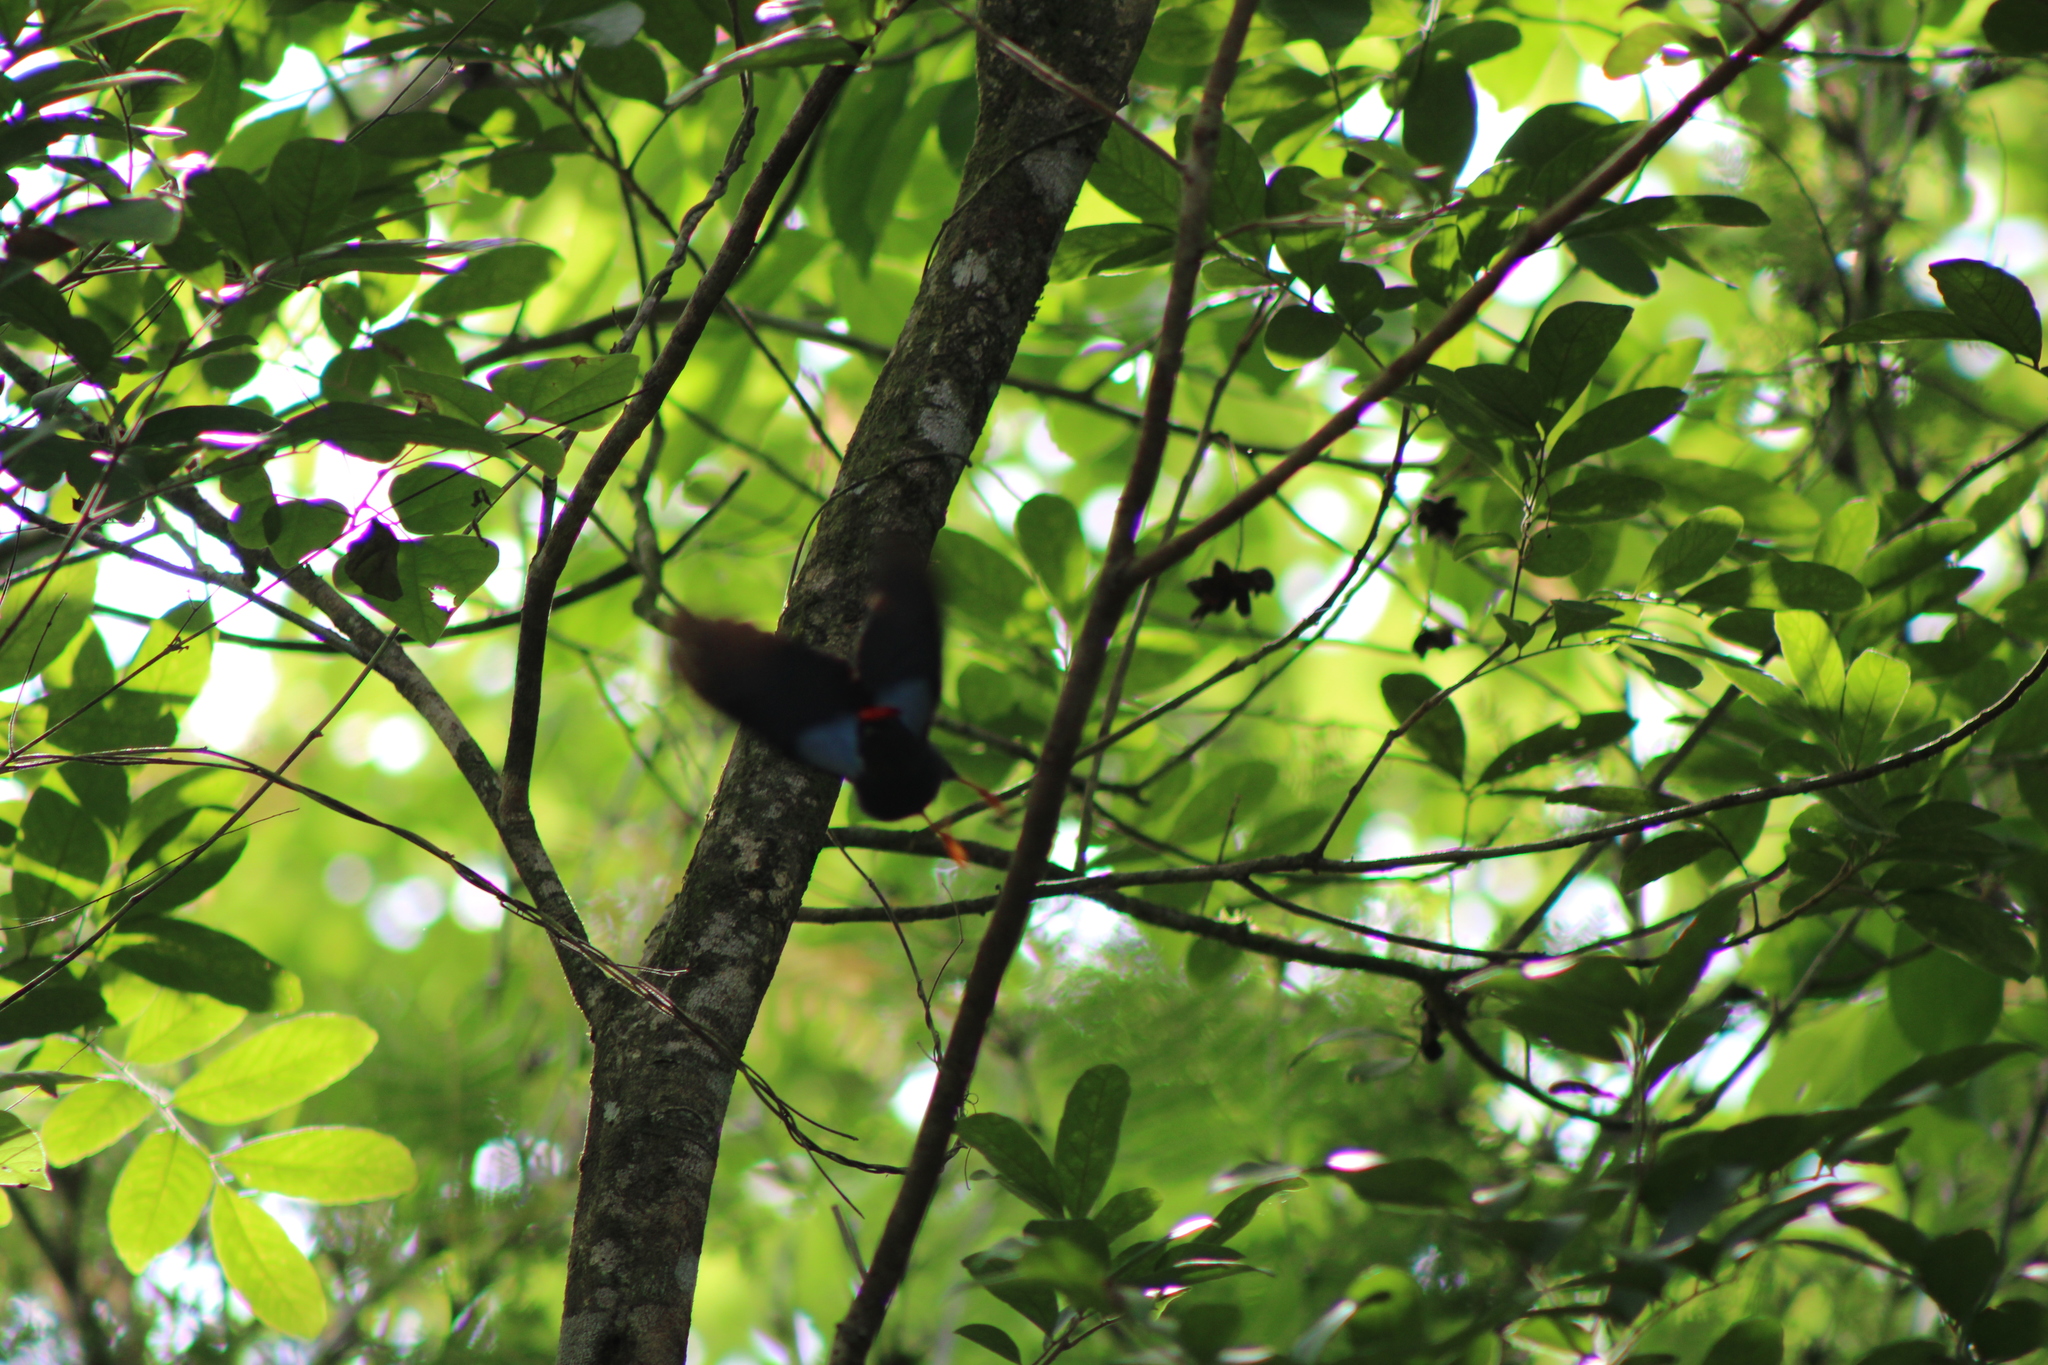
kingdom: Animalia
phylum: Chordata
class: Aves
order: Passeriformes
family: Pipridae
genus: Chiroxiphia
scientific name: Chiroxiphia lanceolata
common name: Lance-tailed manakin
